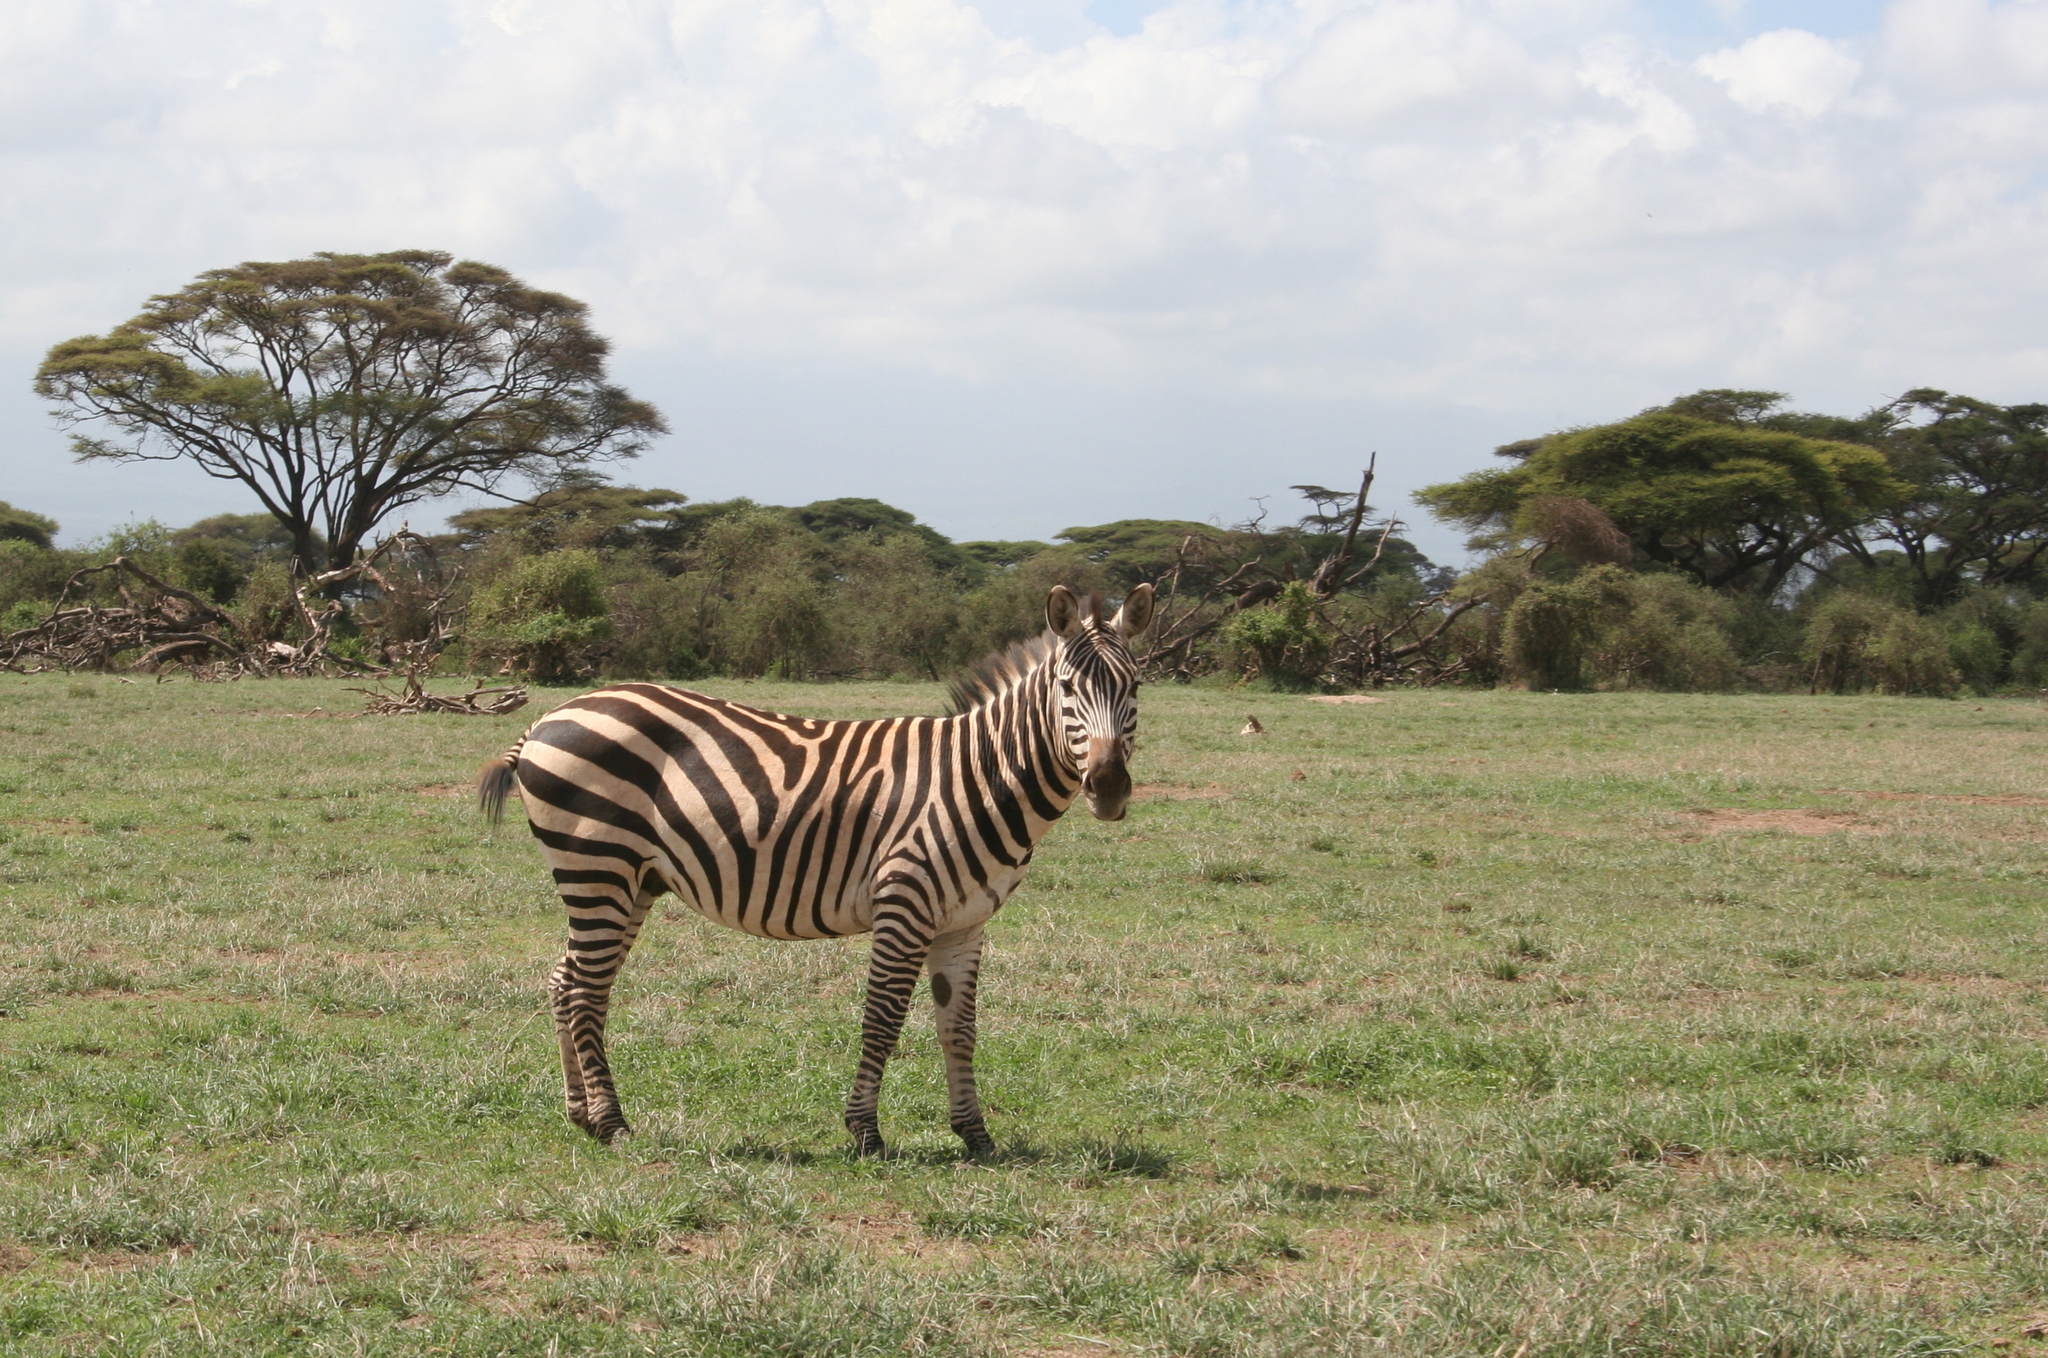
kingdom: Animalia
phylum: Chordata
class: Mammalia
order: Perissodactyla
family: Equidae
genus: Equus
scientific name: Equus quagga
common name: Plains zebra
